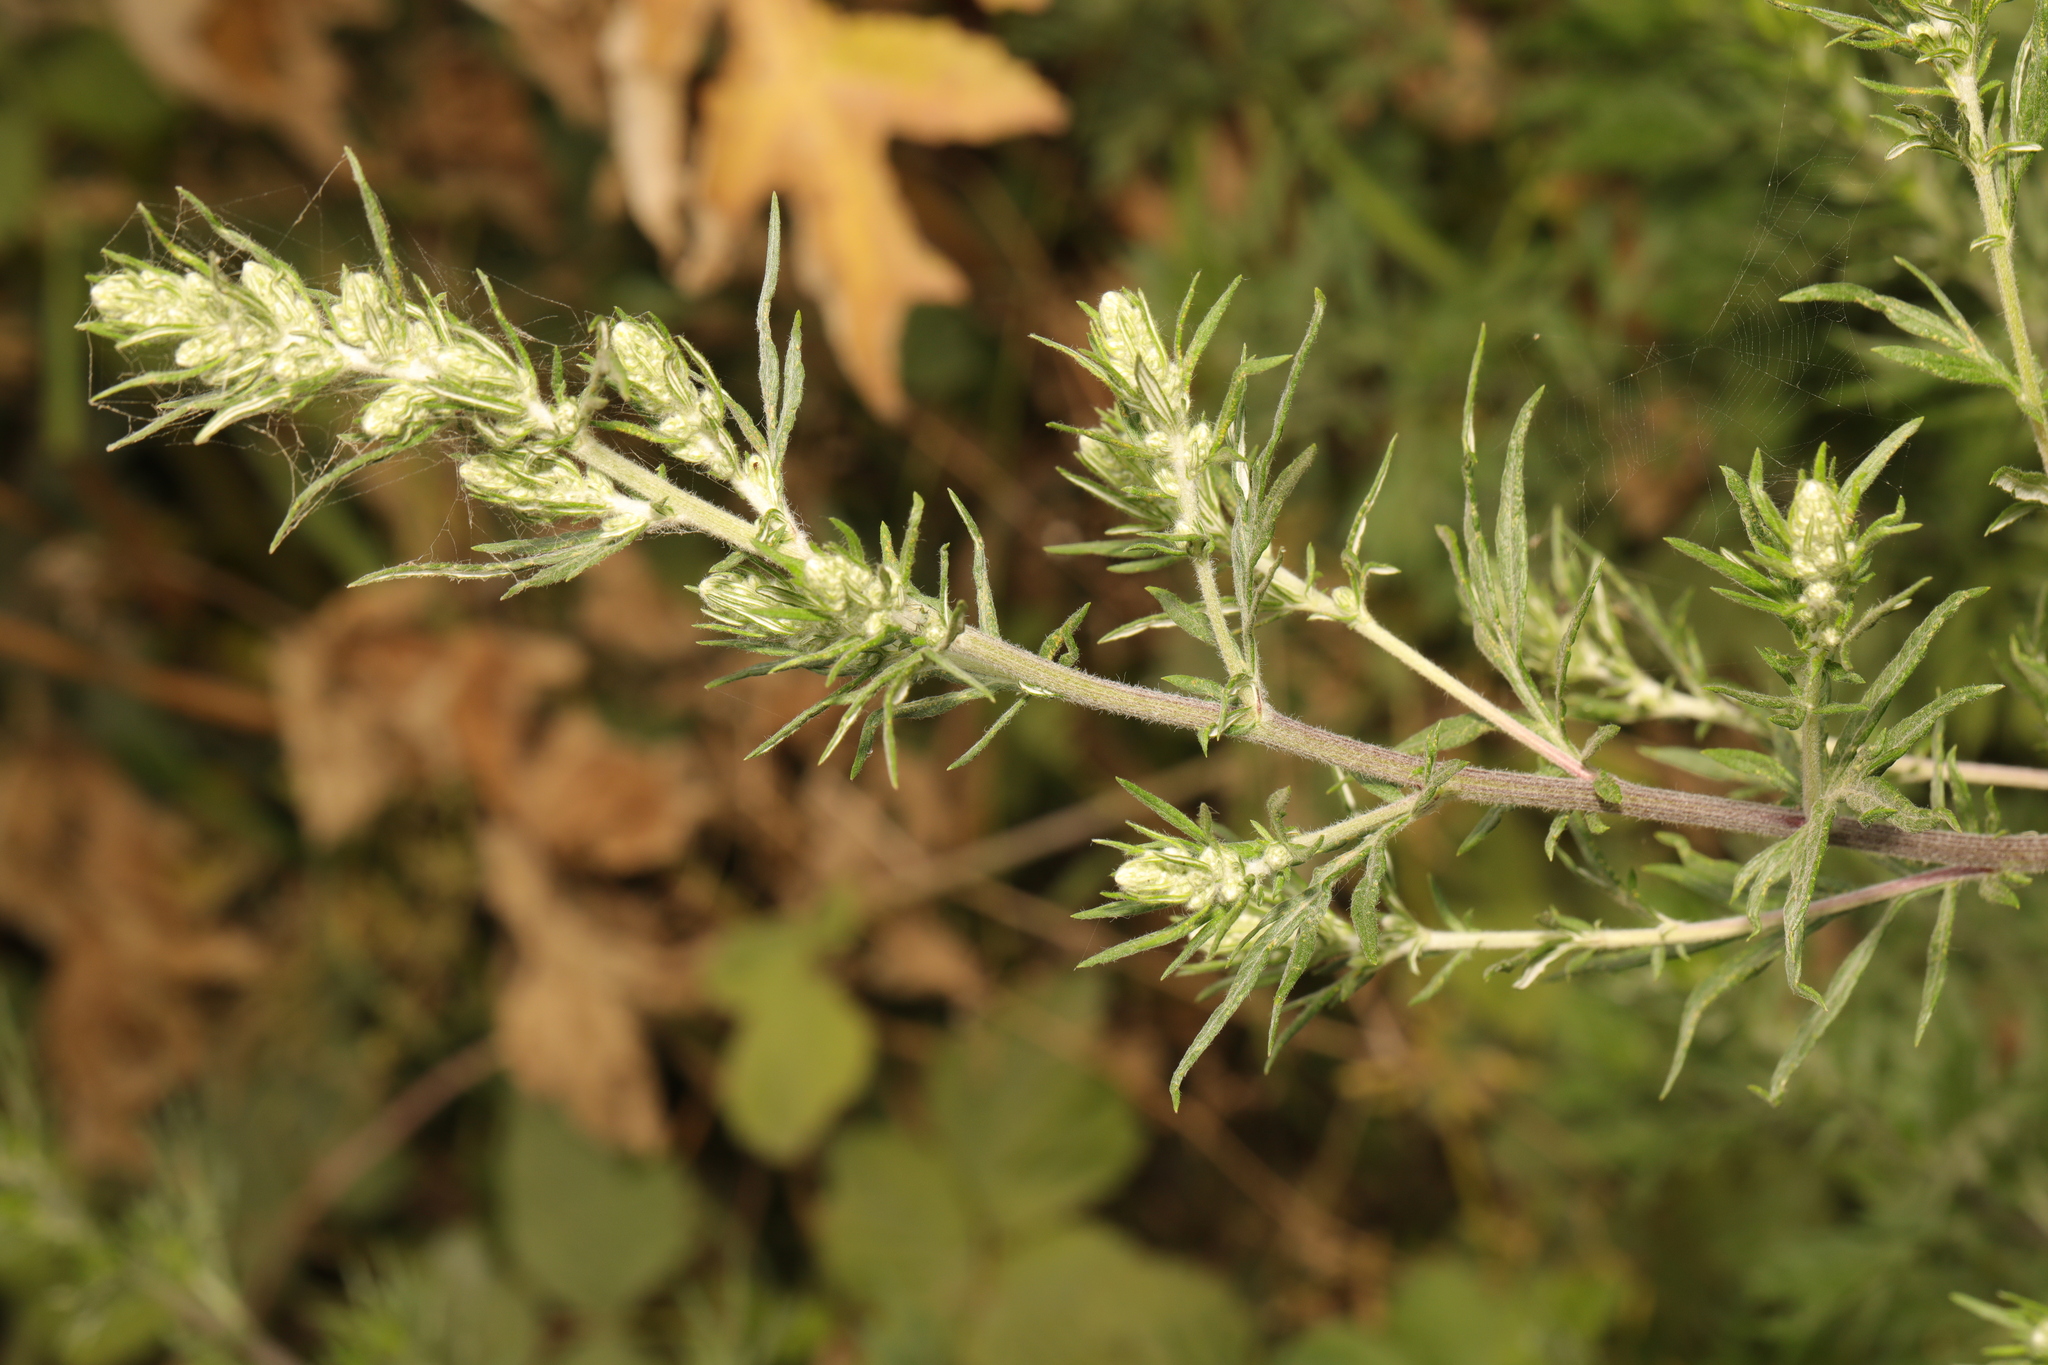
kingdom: Plantae
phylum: Tracheophyta
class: Magnoliopsida
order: Asterales
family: Asteraceae
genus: Artemisia
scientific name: Artemisia vulgaris
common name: Mugwort
